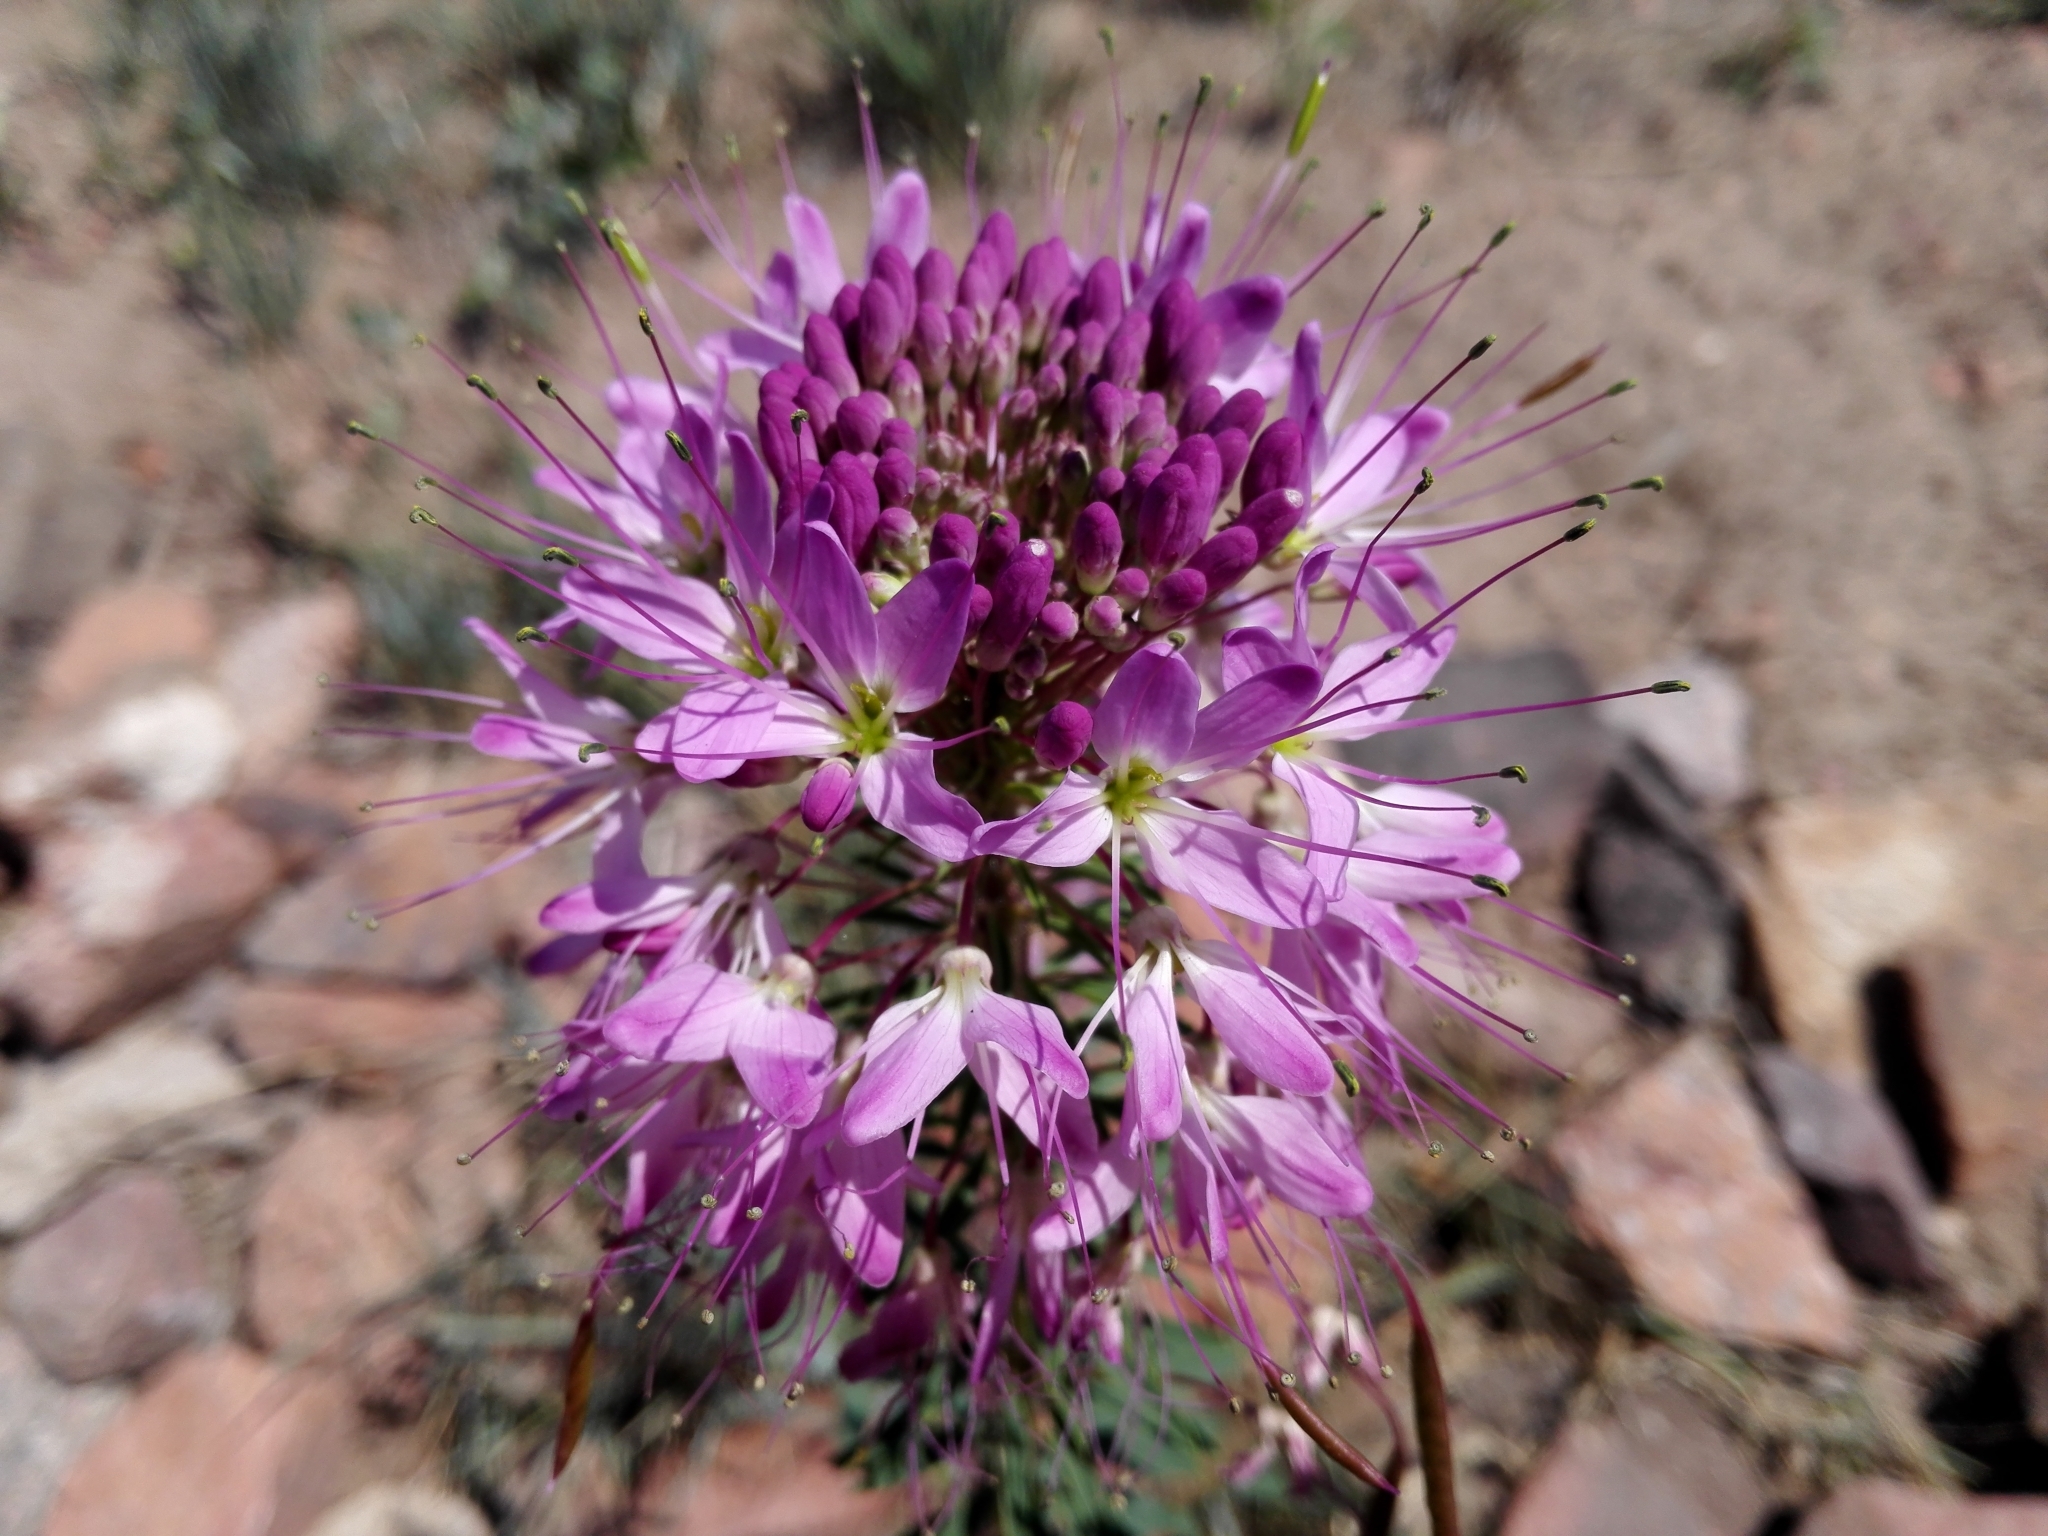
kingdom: Plantae
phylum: Tracheophyta
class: Magnoliopsida
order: Brassicales
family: Cleomaceae
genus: Cleomella
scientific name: Cleomella serrulata
